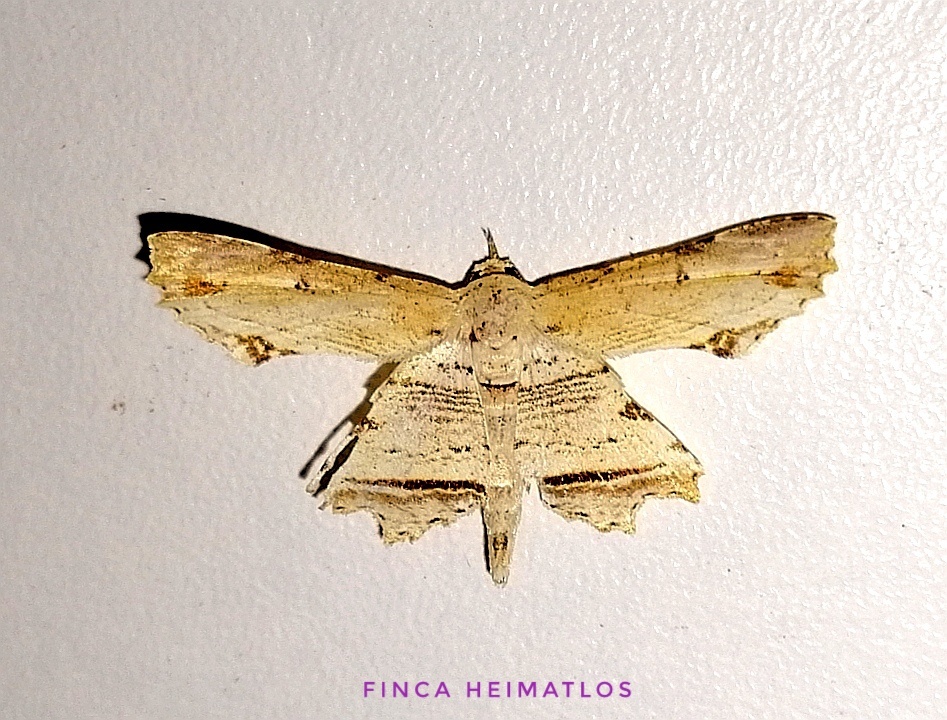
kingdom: Animalia
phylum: Arthropoda
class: Insecta
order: Lepidoptera
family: Erebidae
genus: Oroscopa
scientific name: Oroscopa delicata
